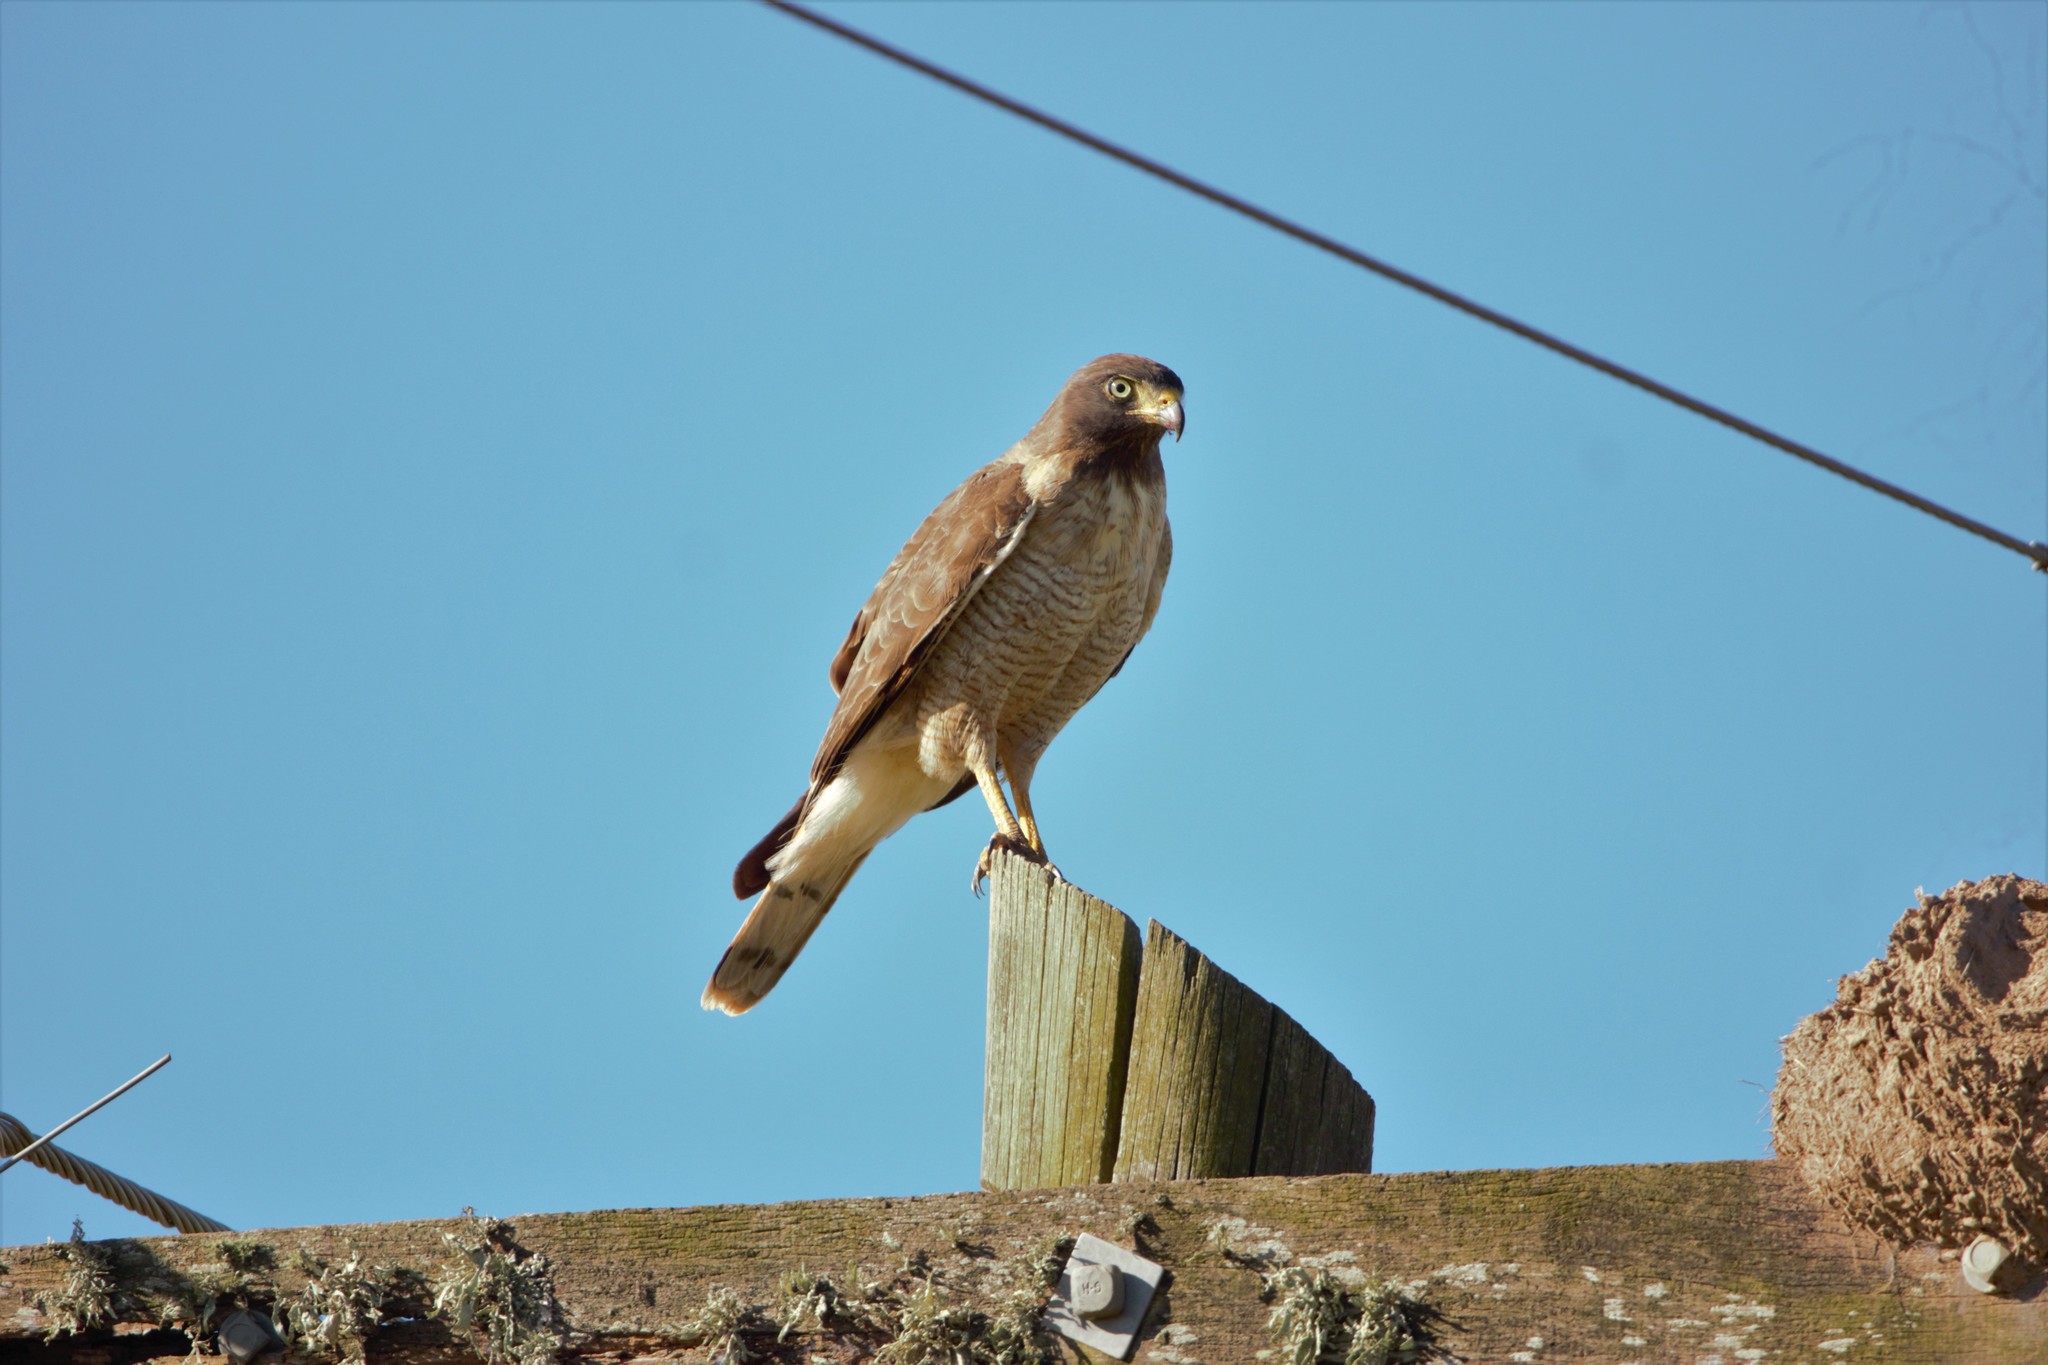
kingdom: Animalia
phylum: Chordata
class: Aves
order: Accipitriformes
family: Accipitridae
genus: Rupornis
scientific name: Rupornis magnirostris
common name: Roadside hawk
